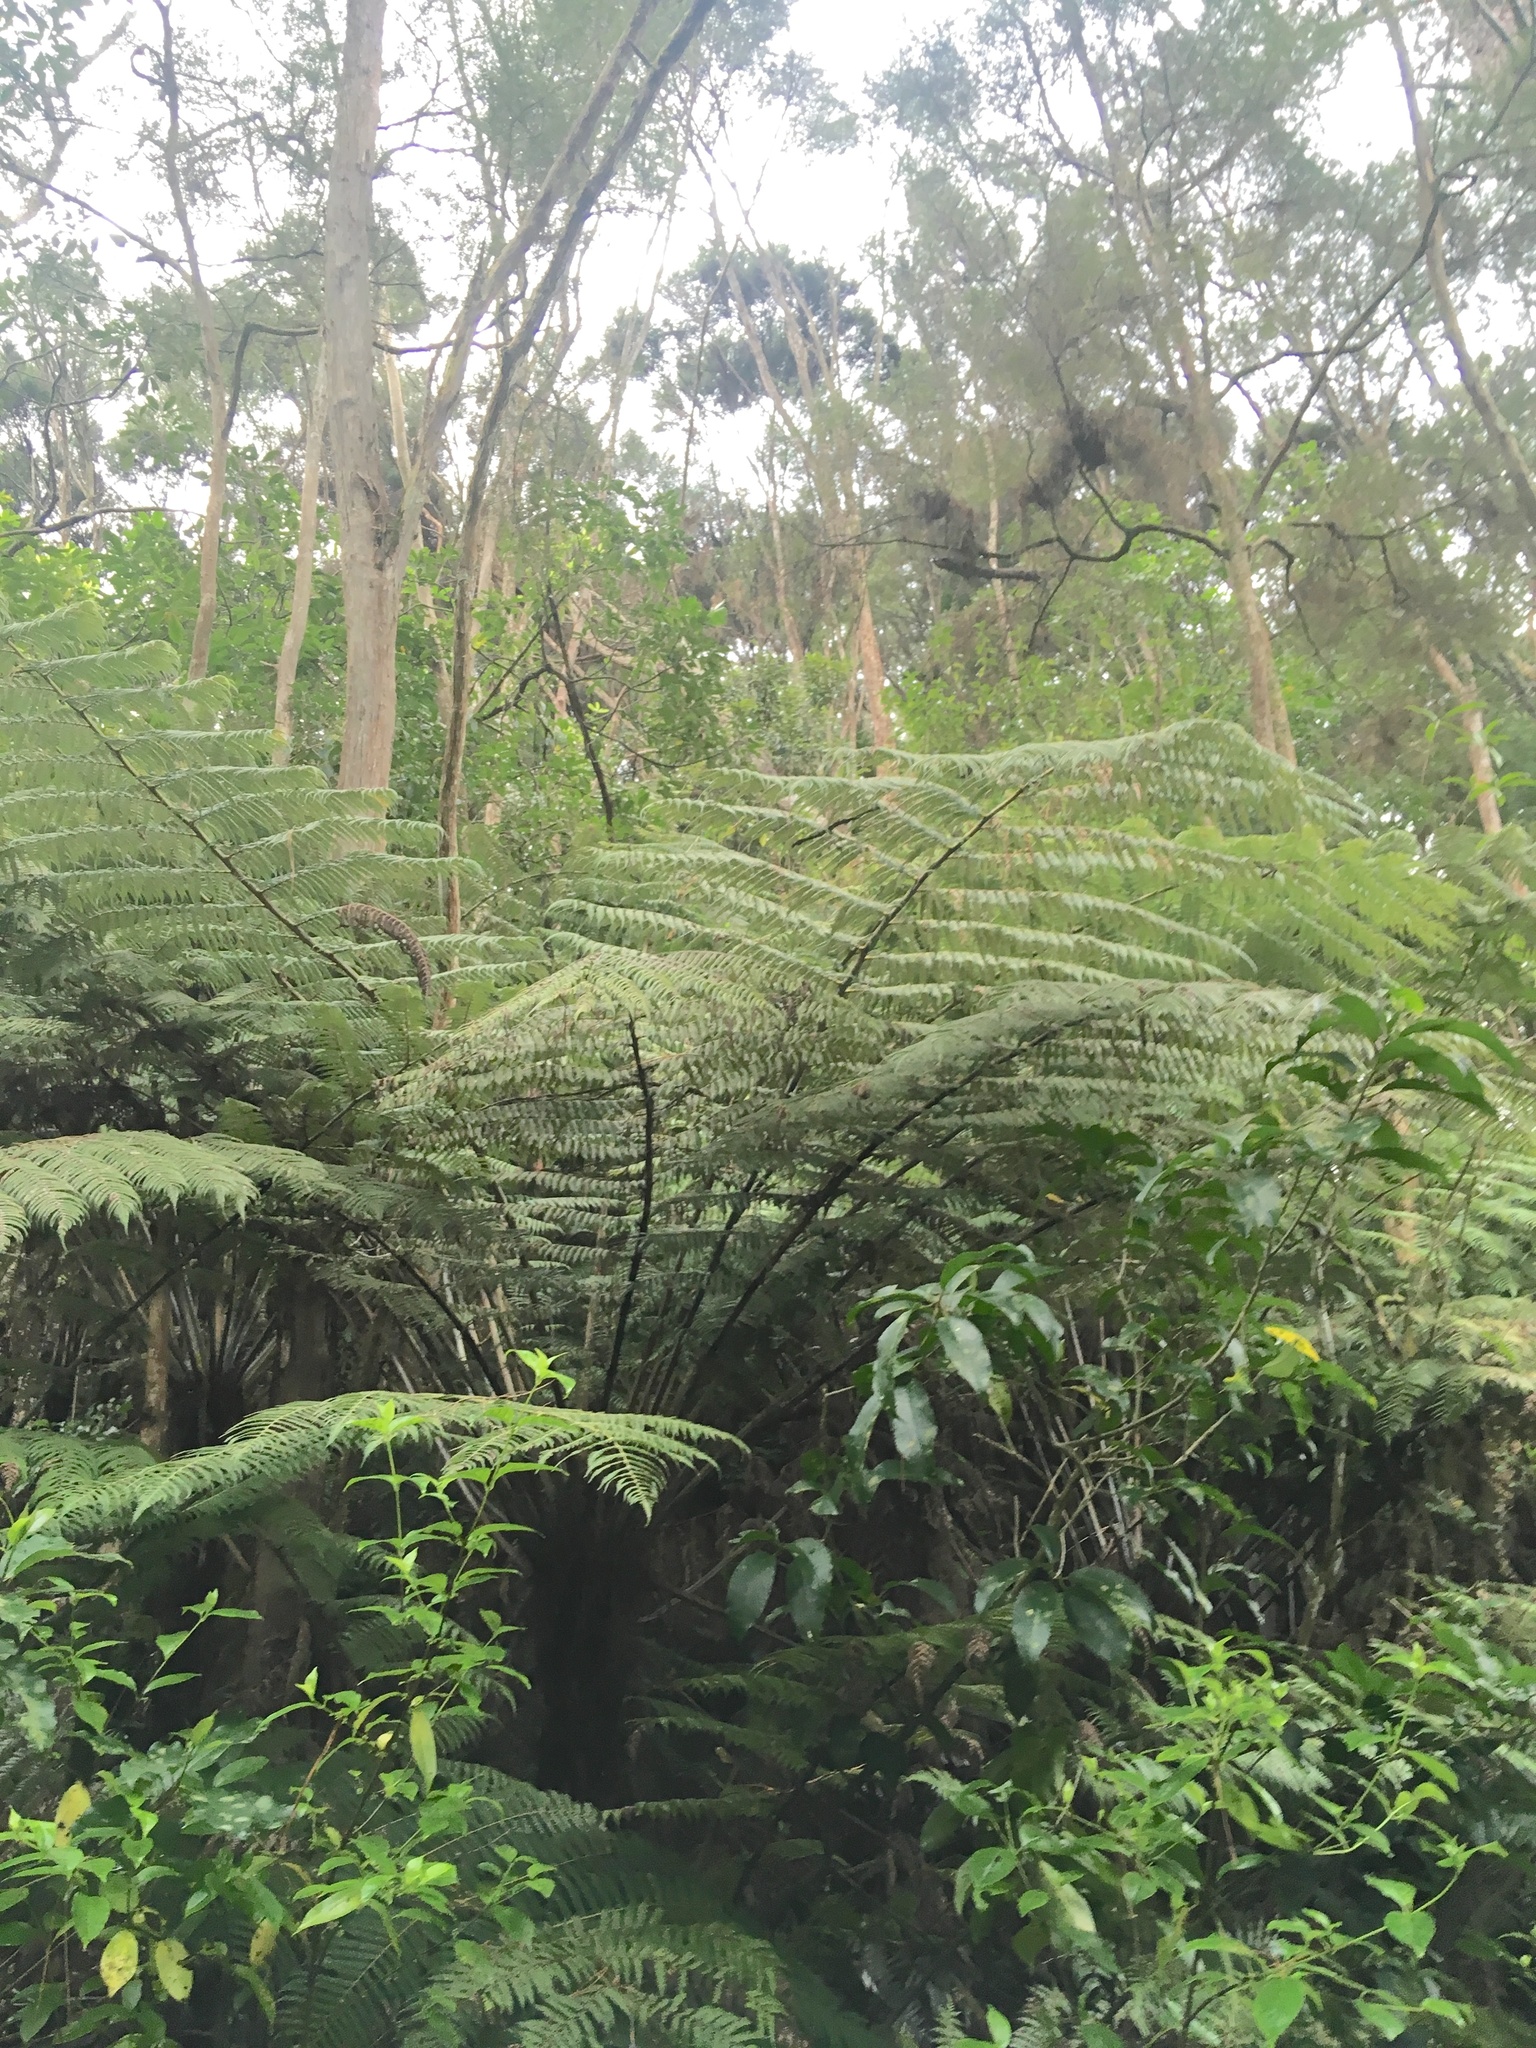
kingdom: Plantae
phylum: Tracheophyta
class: Polypodiopsida
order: Cyatheales
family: Cyatheaceae
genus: Sphaeropteris
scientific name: Sphaeropteris medullaris
